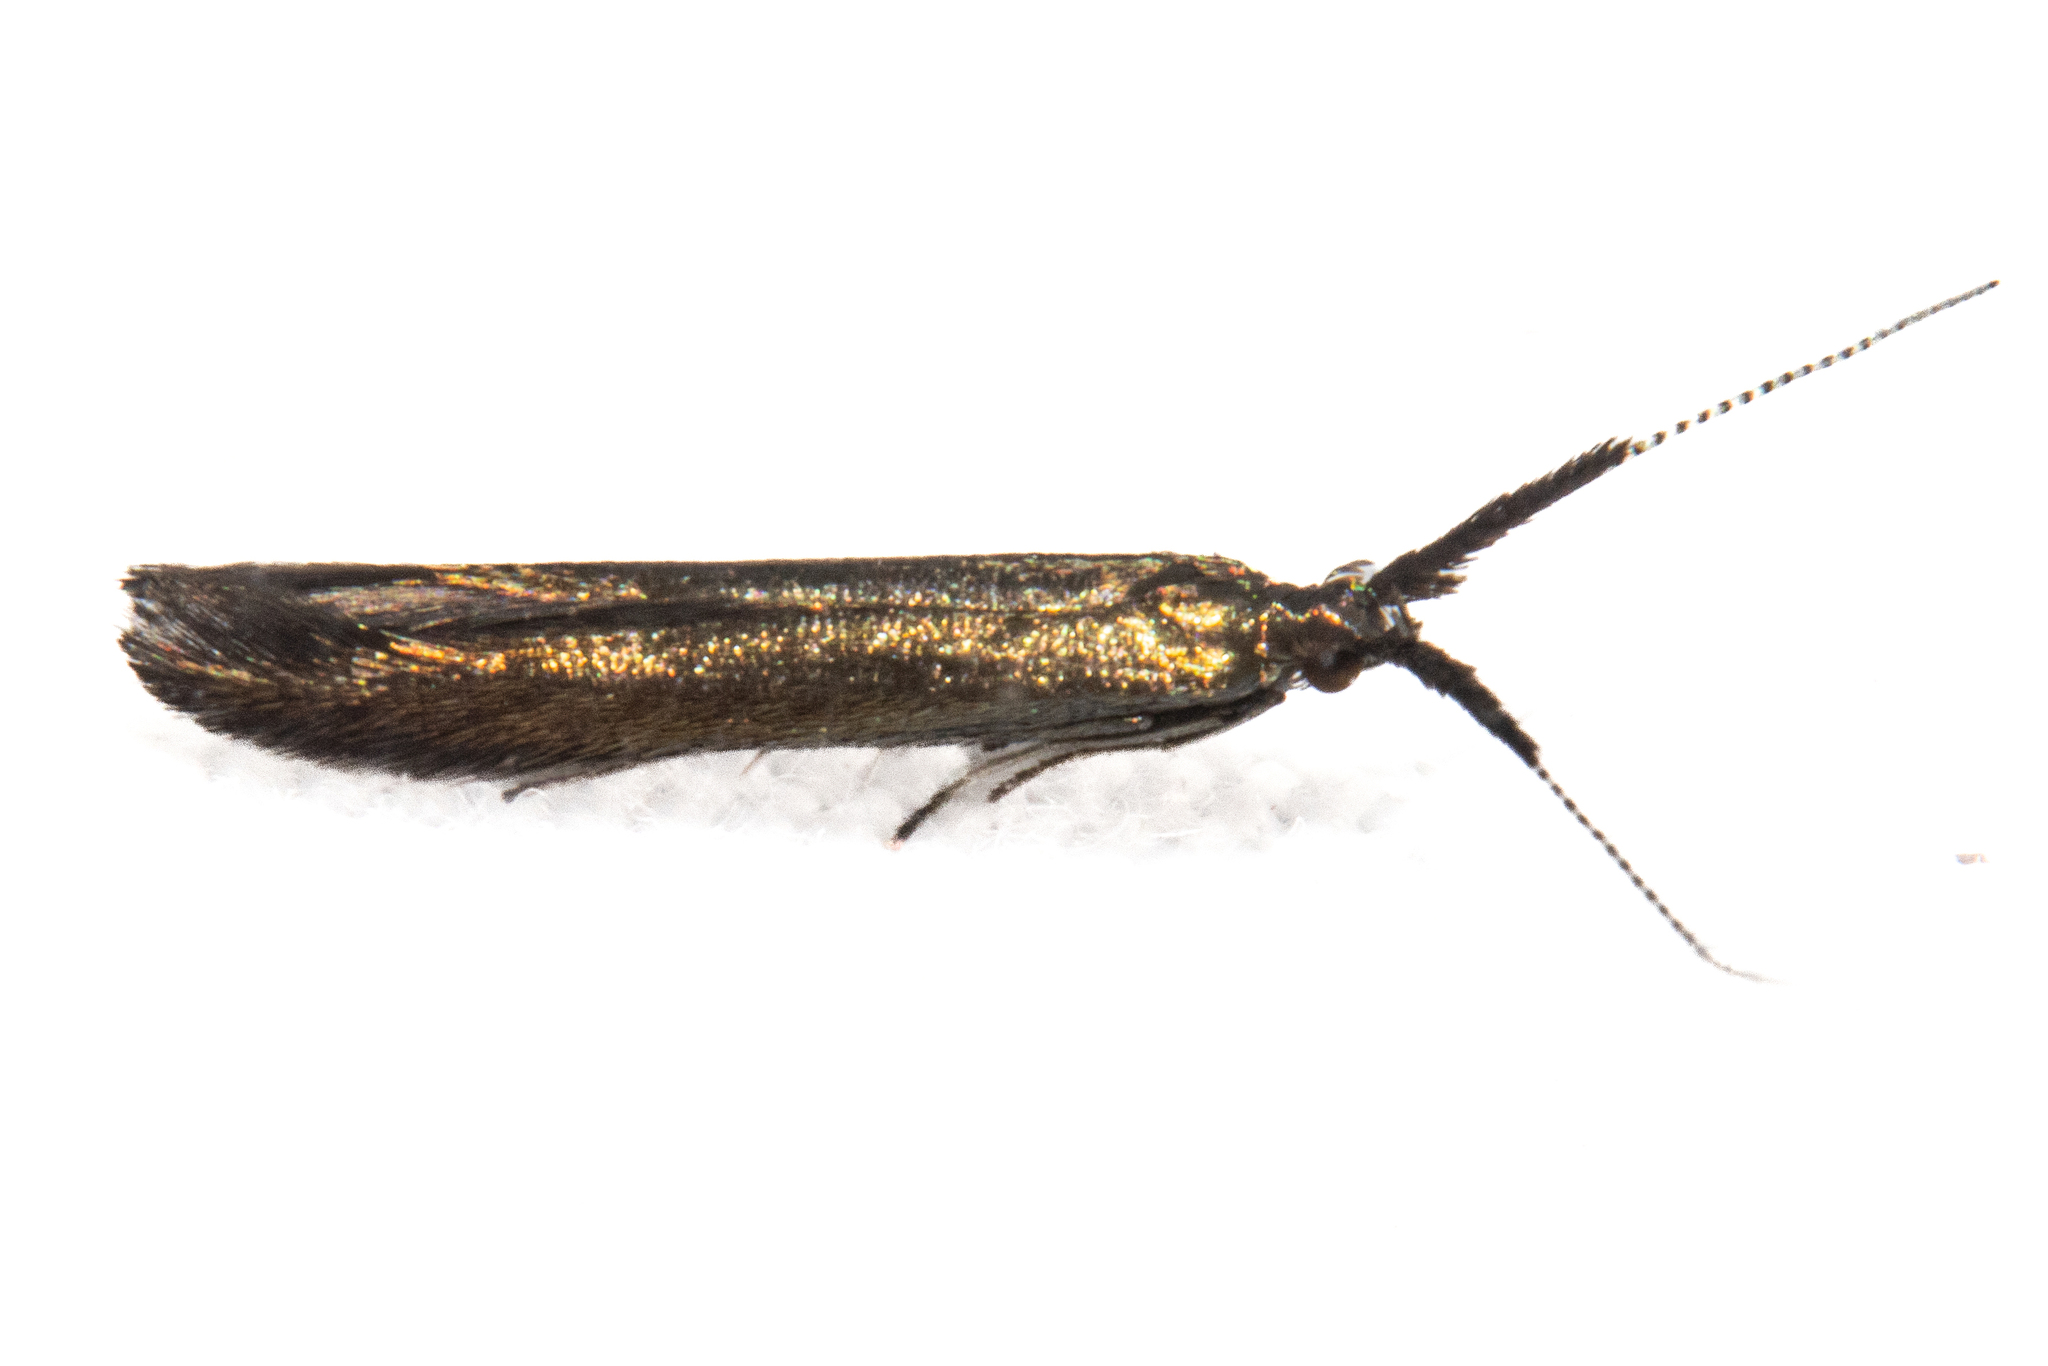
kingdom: Animalia
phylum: Arthropoda
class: Insecta
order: Lepidoptera
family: Coleophoridae
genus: Coleophora
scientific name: Coleophora mayrella
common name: Meadow case-bearer
